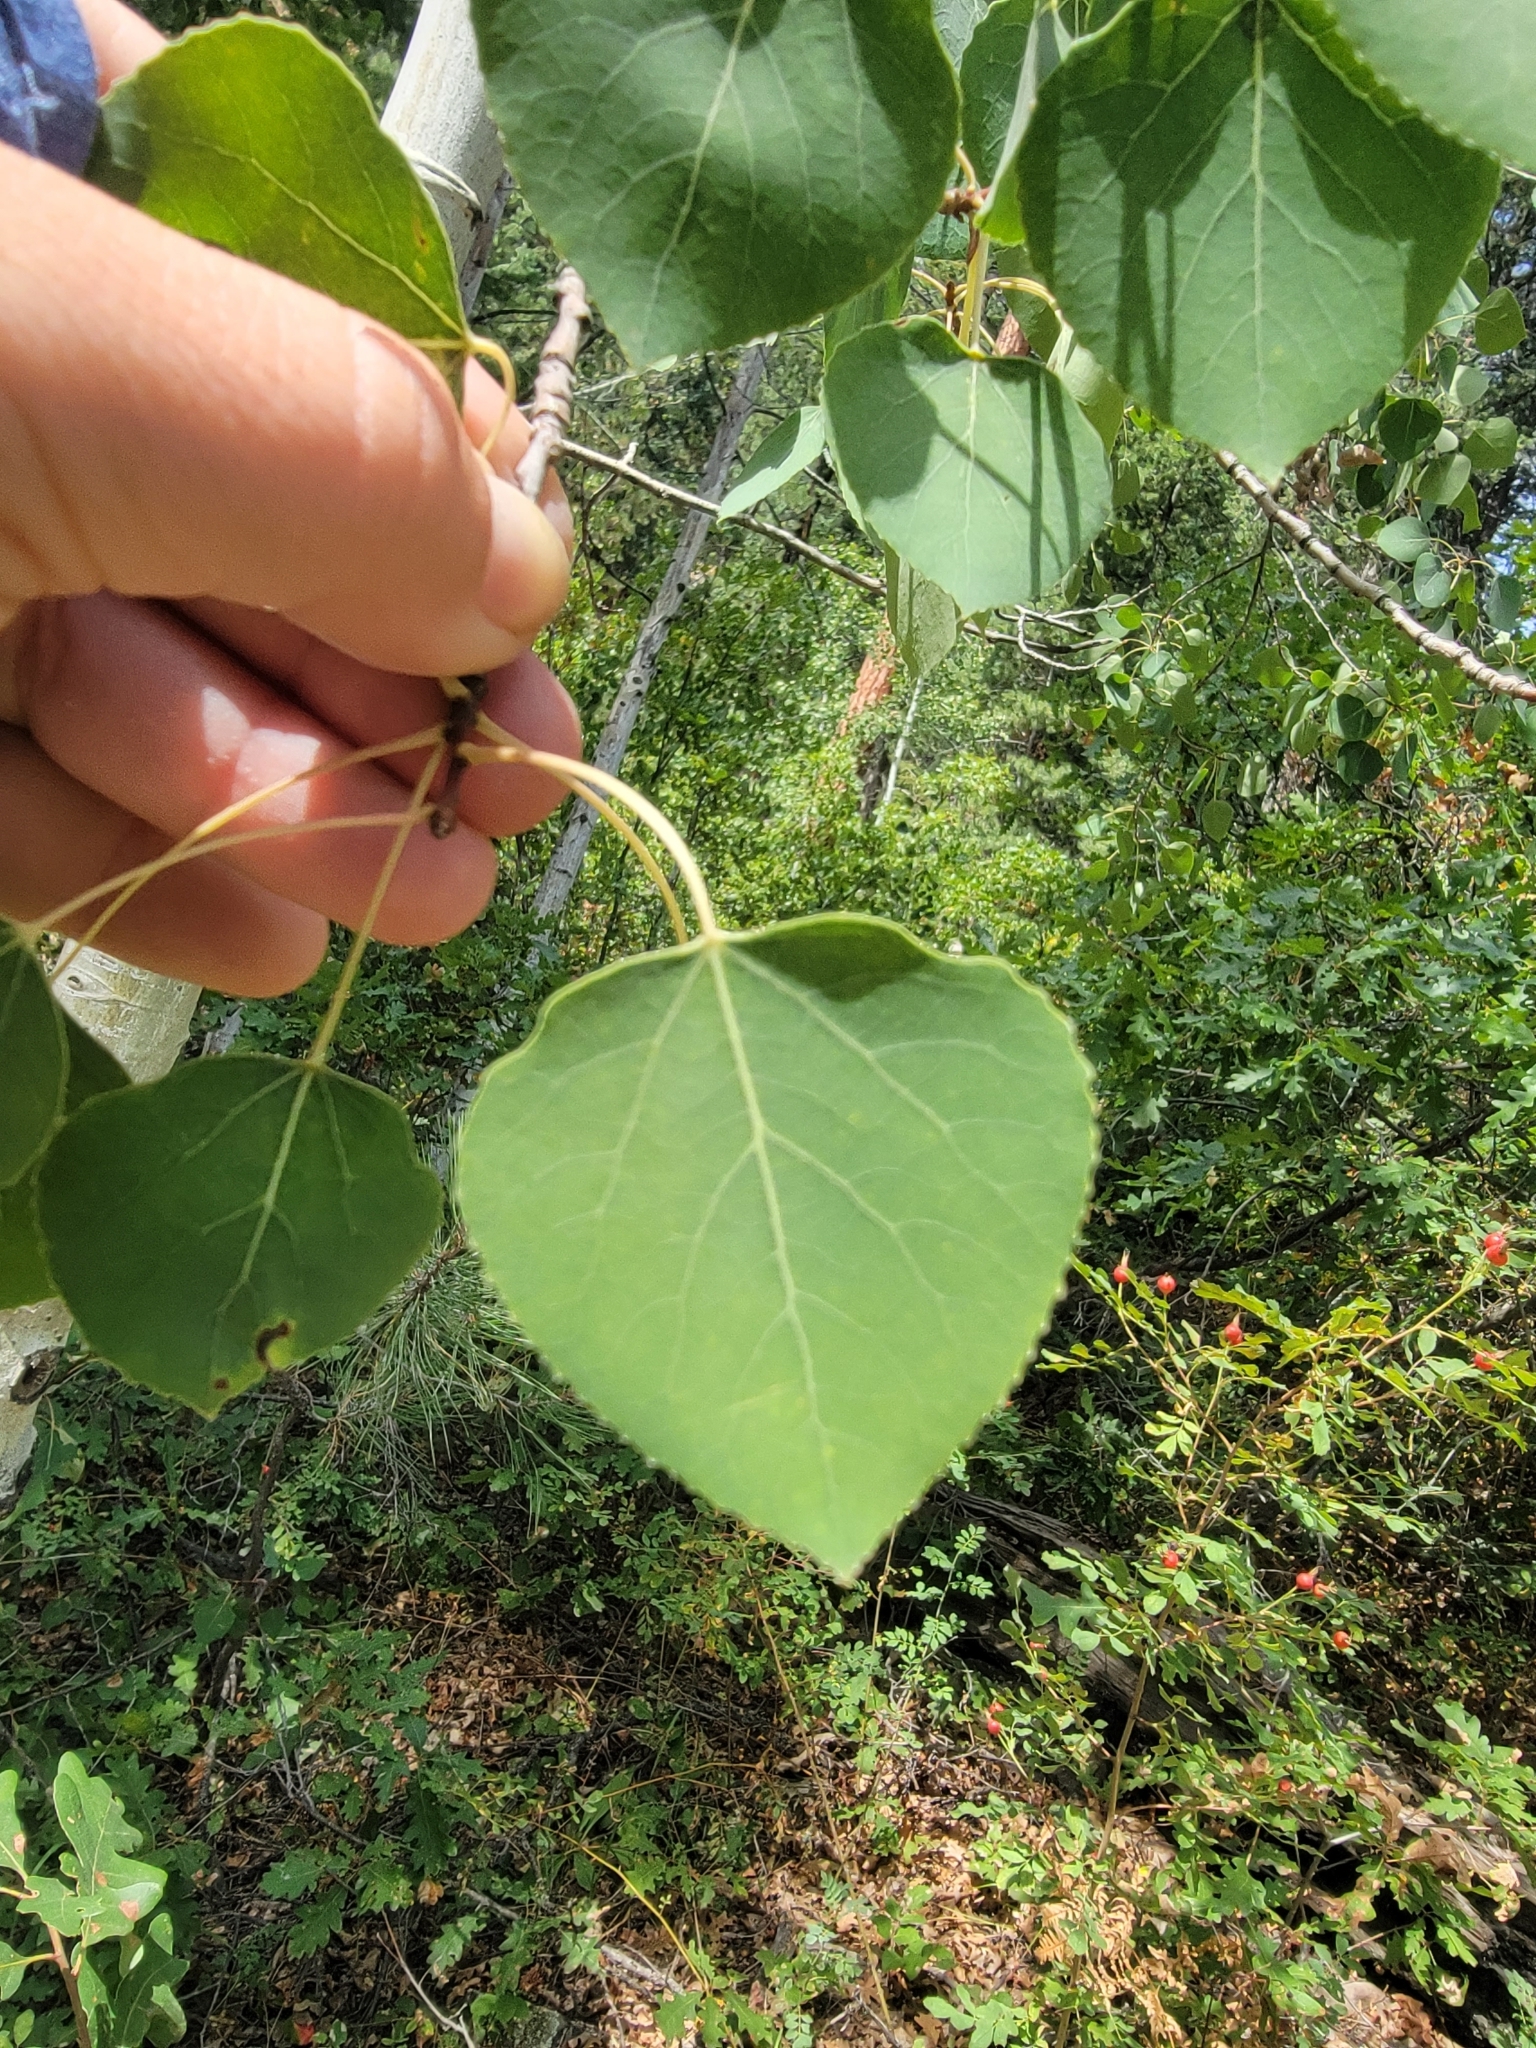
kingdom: Plantae
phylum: Tracheophyta
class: Magnoliopsida
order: Malpighiales
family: Salicaceae
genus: Populus
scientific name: Populus tremuloides
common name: Quaking aspen
